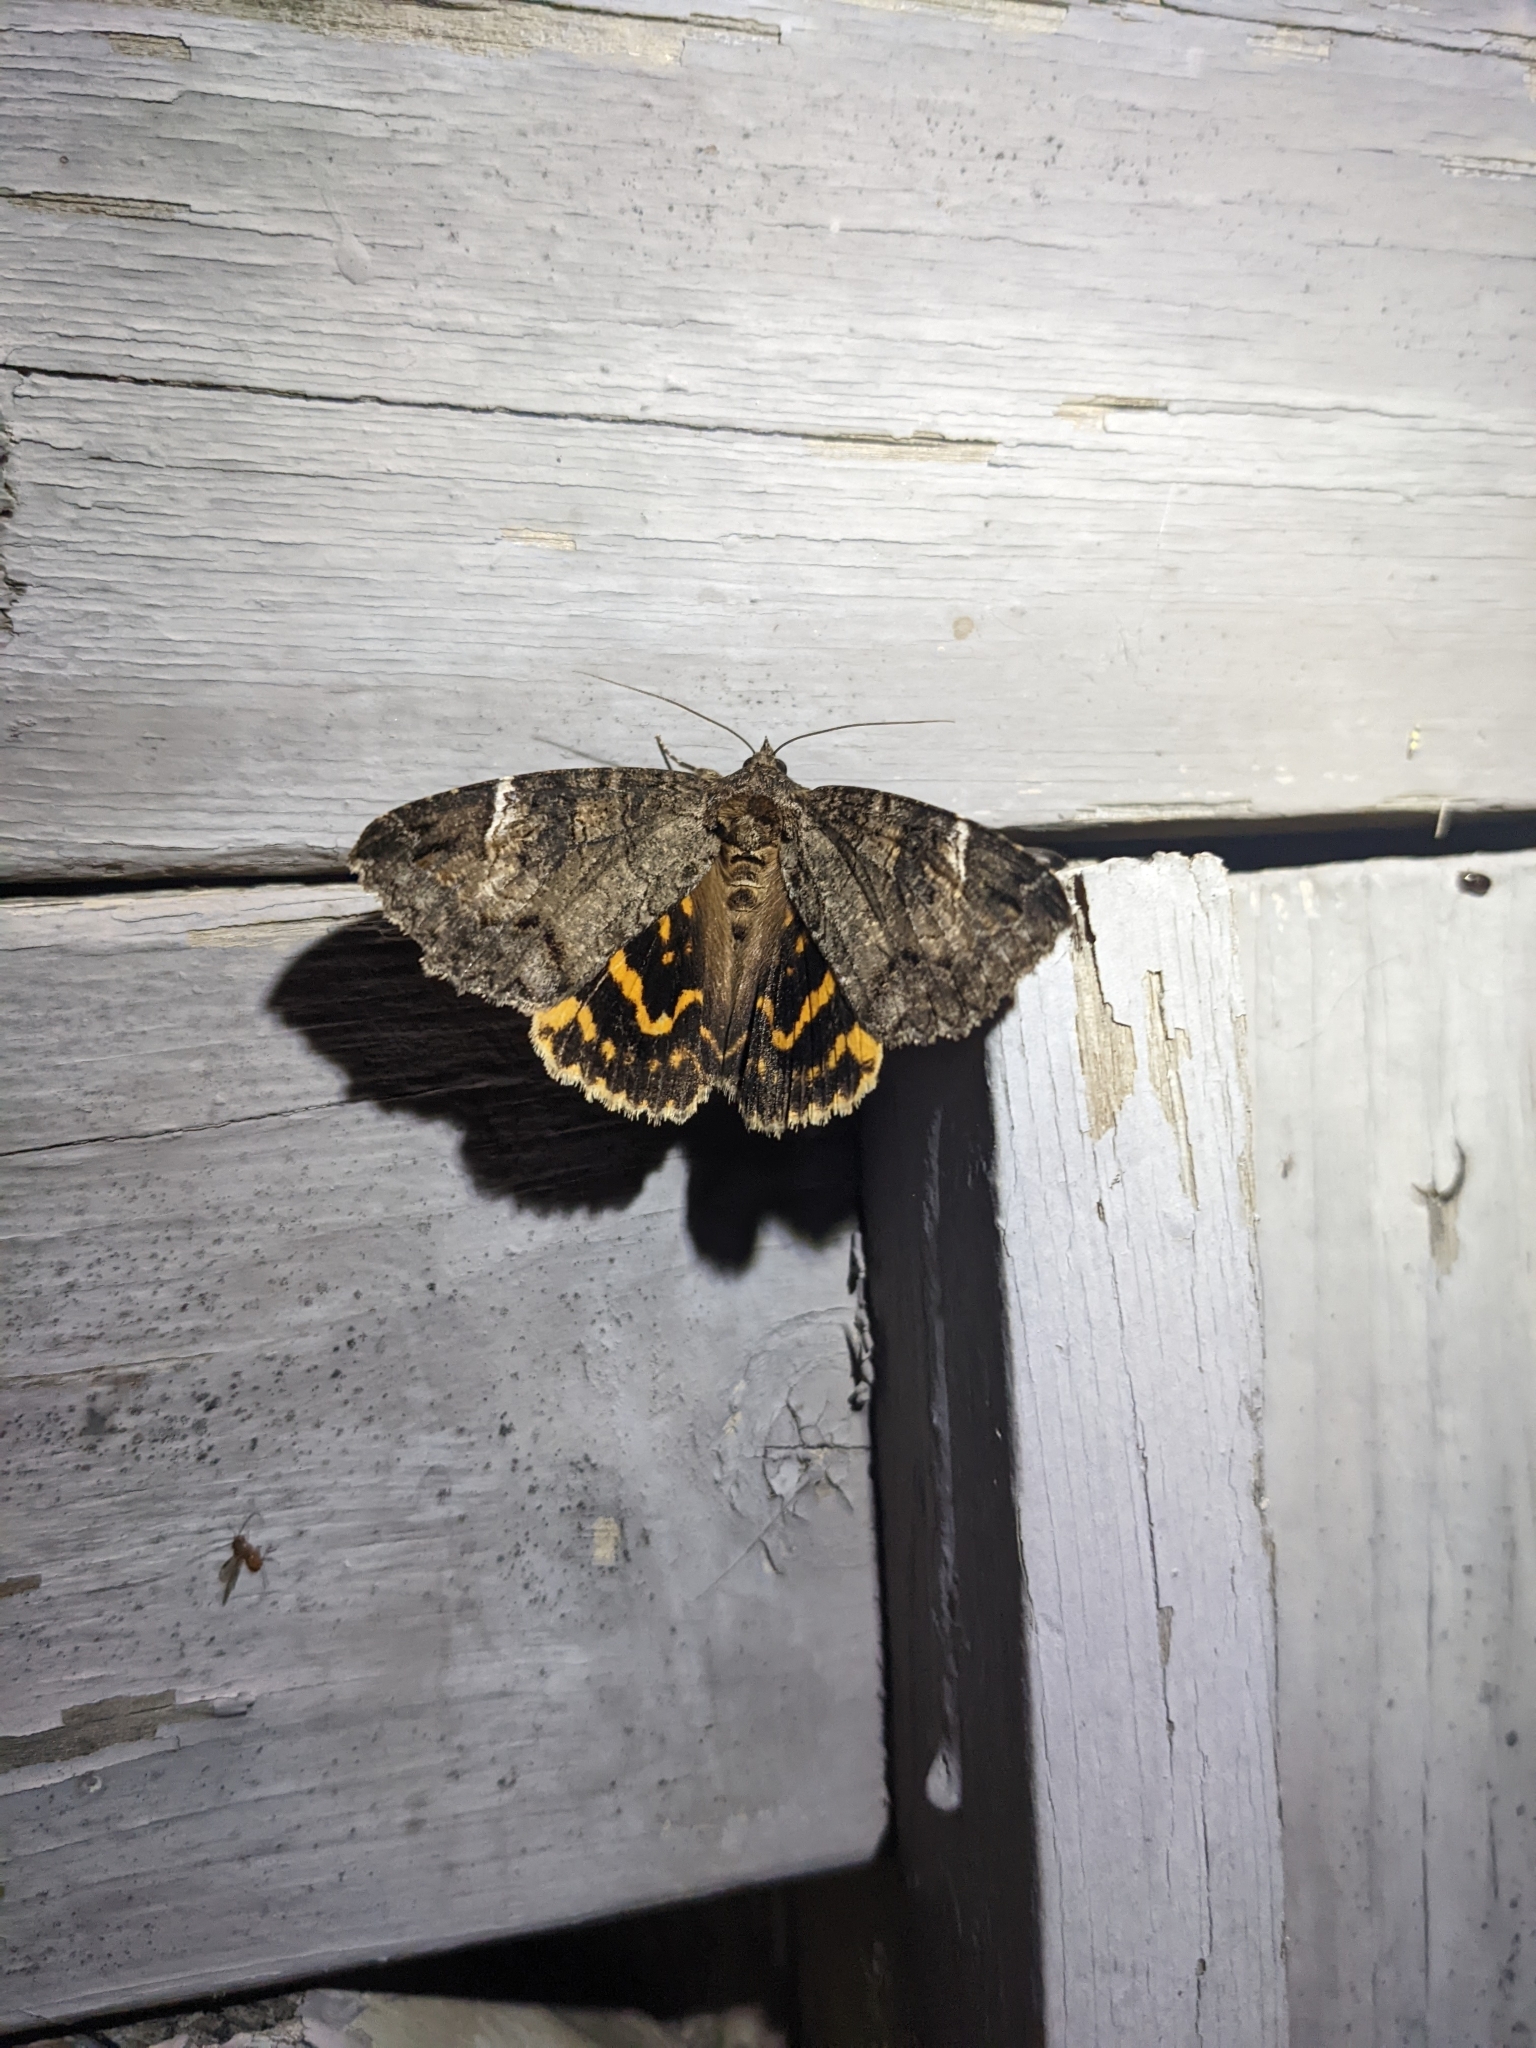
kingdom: Animalia
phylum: Arthropoda
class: Insecta
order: Lepidoptera
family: Erebidae
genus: Euparthenos
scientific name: Euparthenos nubilis
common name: Locust underwing
